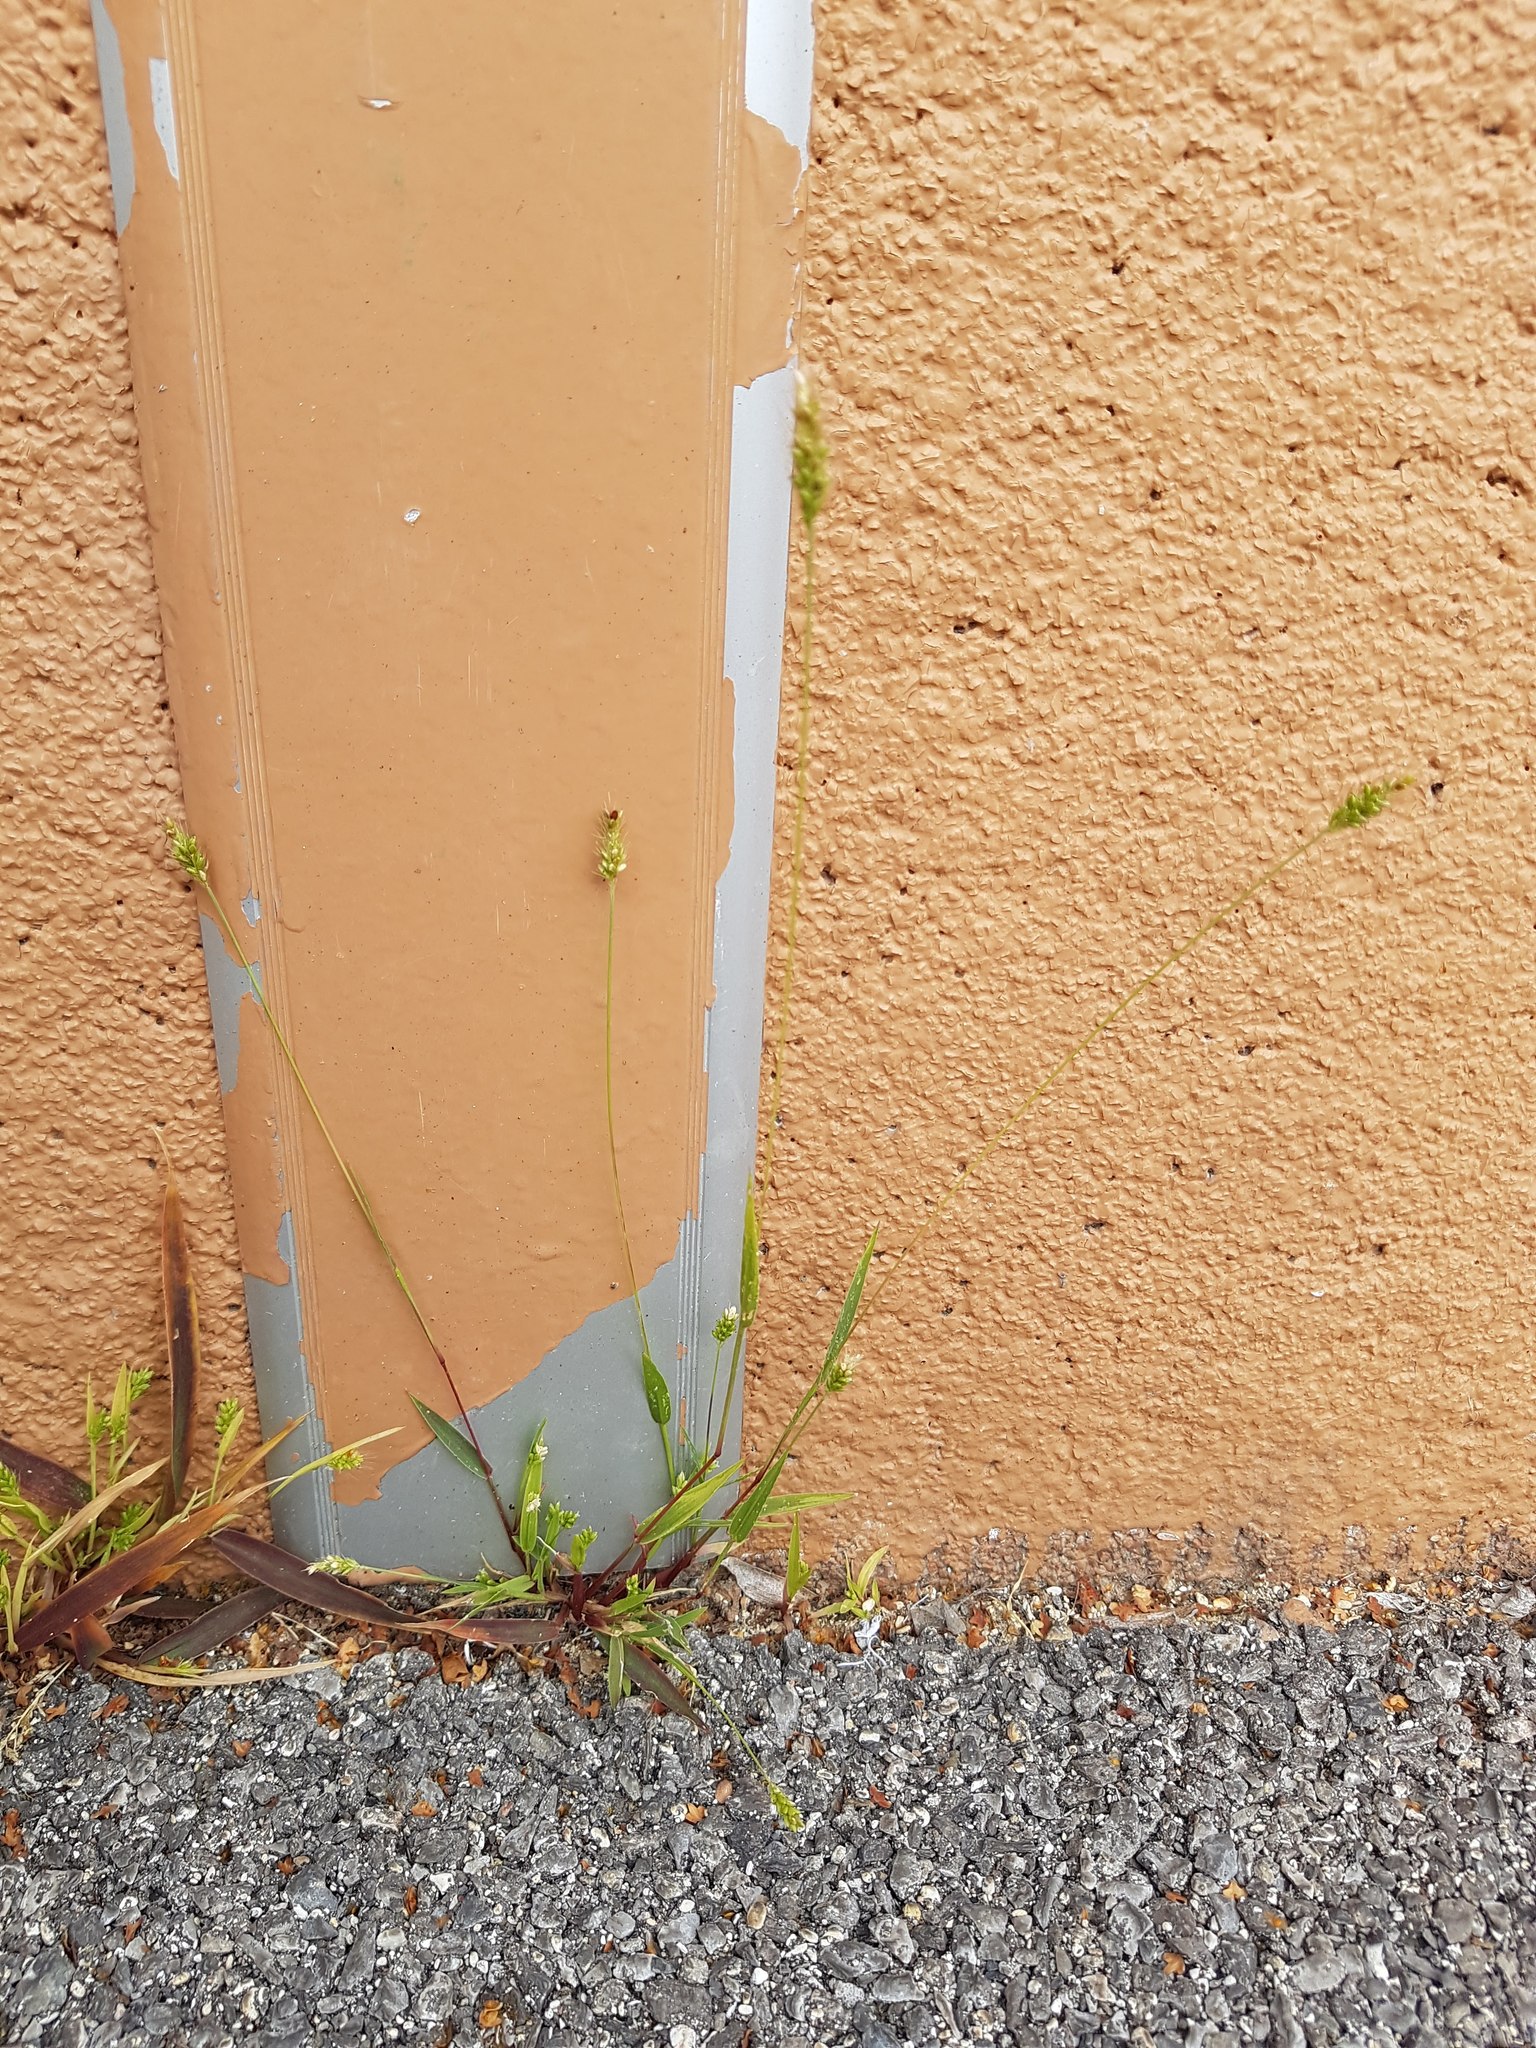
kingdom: Plantae
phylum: Tracheophyta
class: Liliopsida
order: Poales
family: Poaceae
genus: Setaria
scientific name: Setaria viridis
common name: Green bristlegrass
